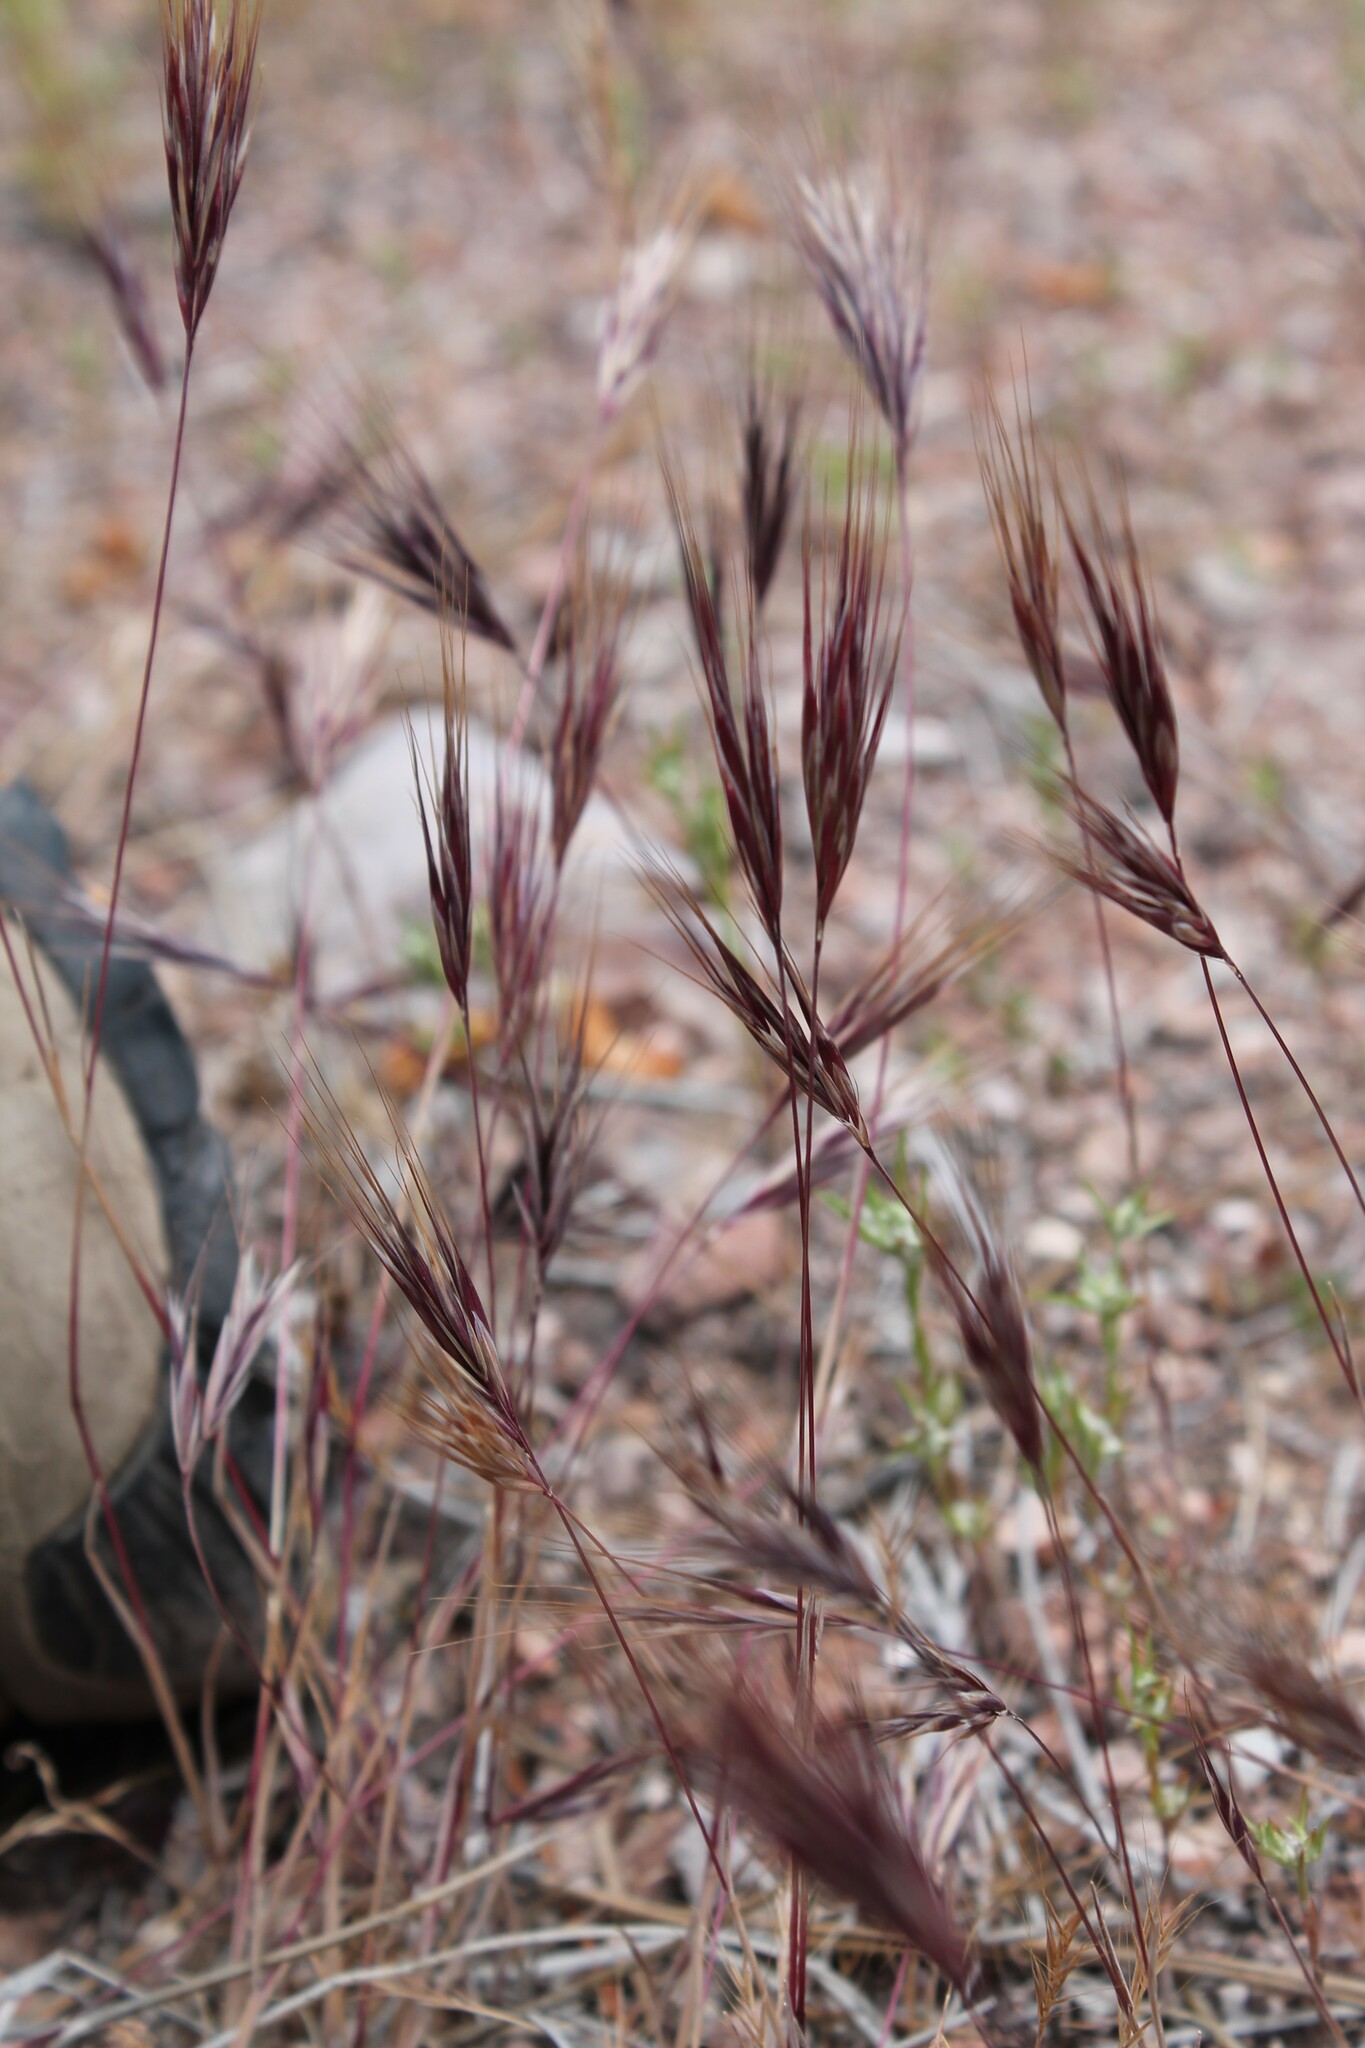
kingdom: Plantae
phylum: Tracheophyta
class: Liliopsida
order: Poales
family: Poaceae
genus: Bromus
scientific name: Bromus rubens
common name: Red brome
